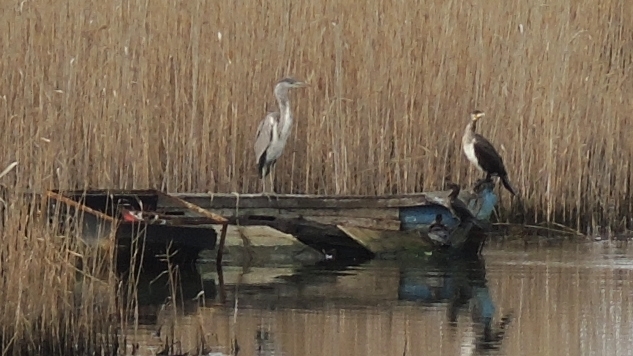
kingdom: Animalia
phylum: Chordata
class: Aves
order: Suliformes
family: Phalacrocoracidae
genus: Microcarbo
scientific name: Microcarbo pygmaeus
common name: Pygmy cormorant
